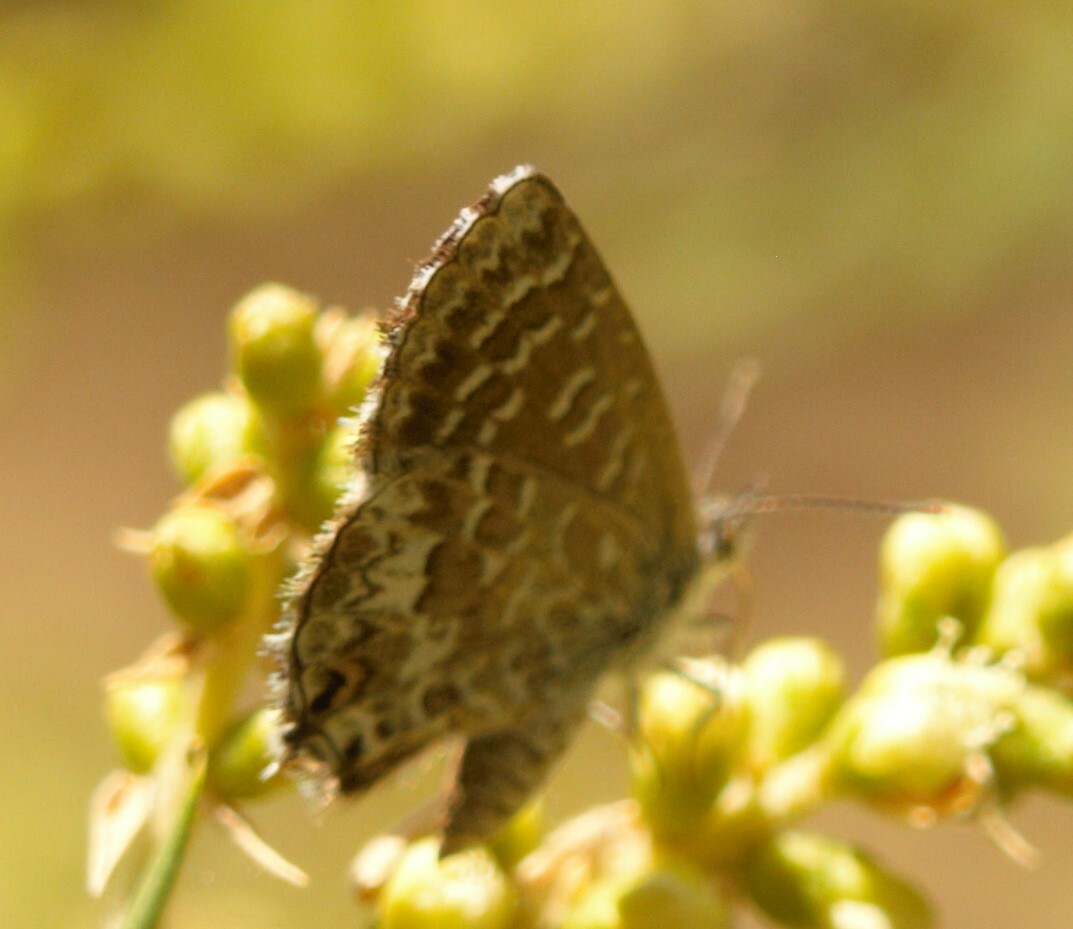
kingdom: Animalia
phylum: Arthropoda
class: Insecta
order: Lepidoptera
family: Lycaenidae
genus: Theclinesthes
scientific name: Theclinesthes serpentata
